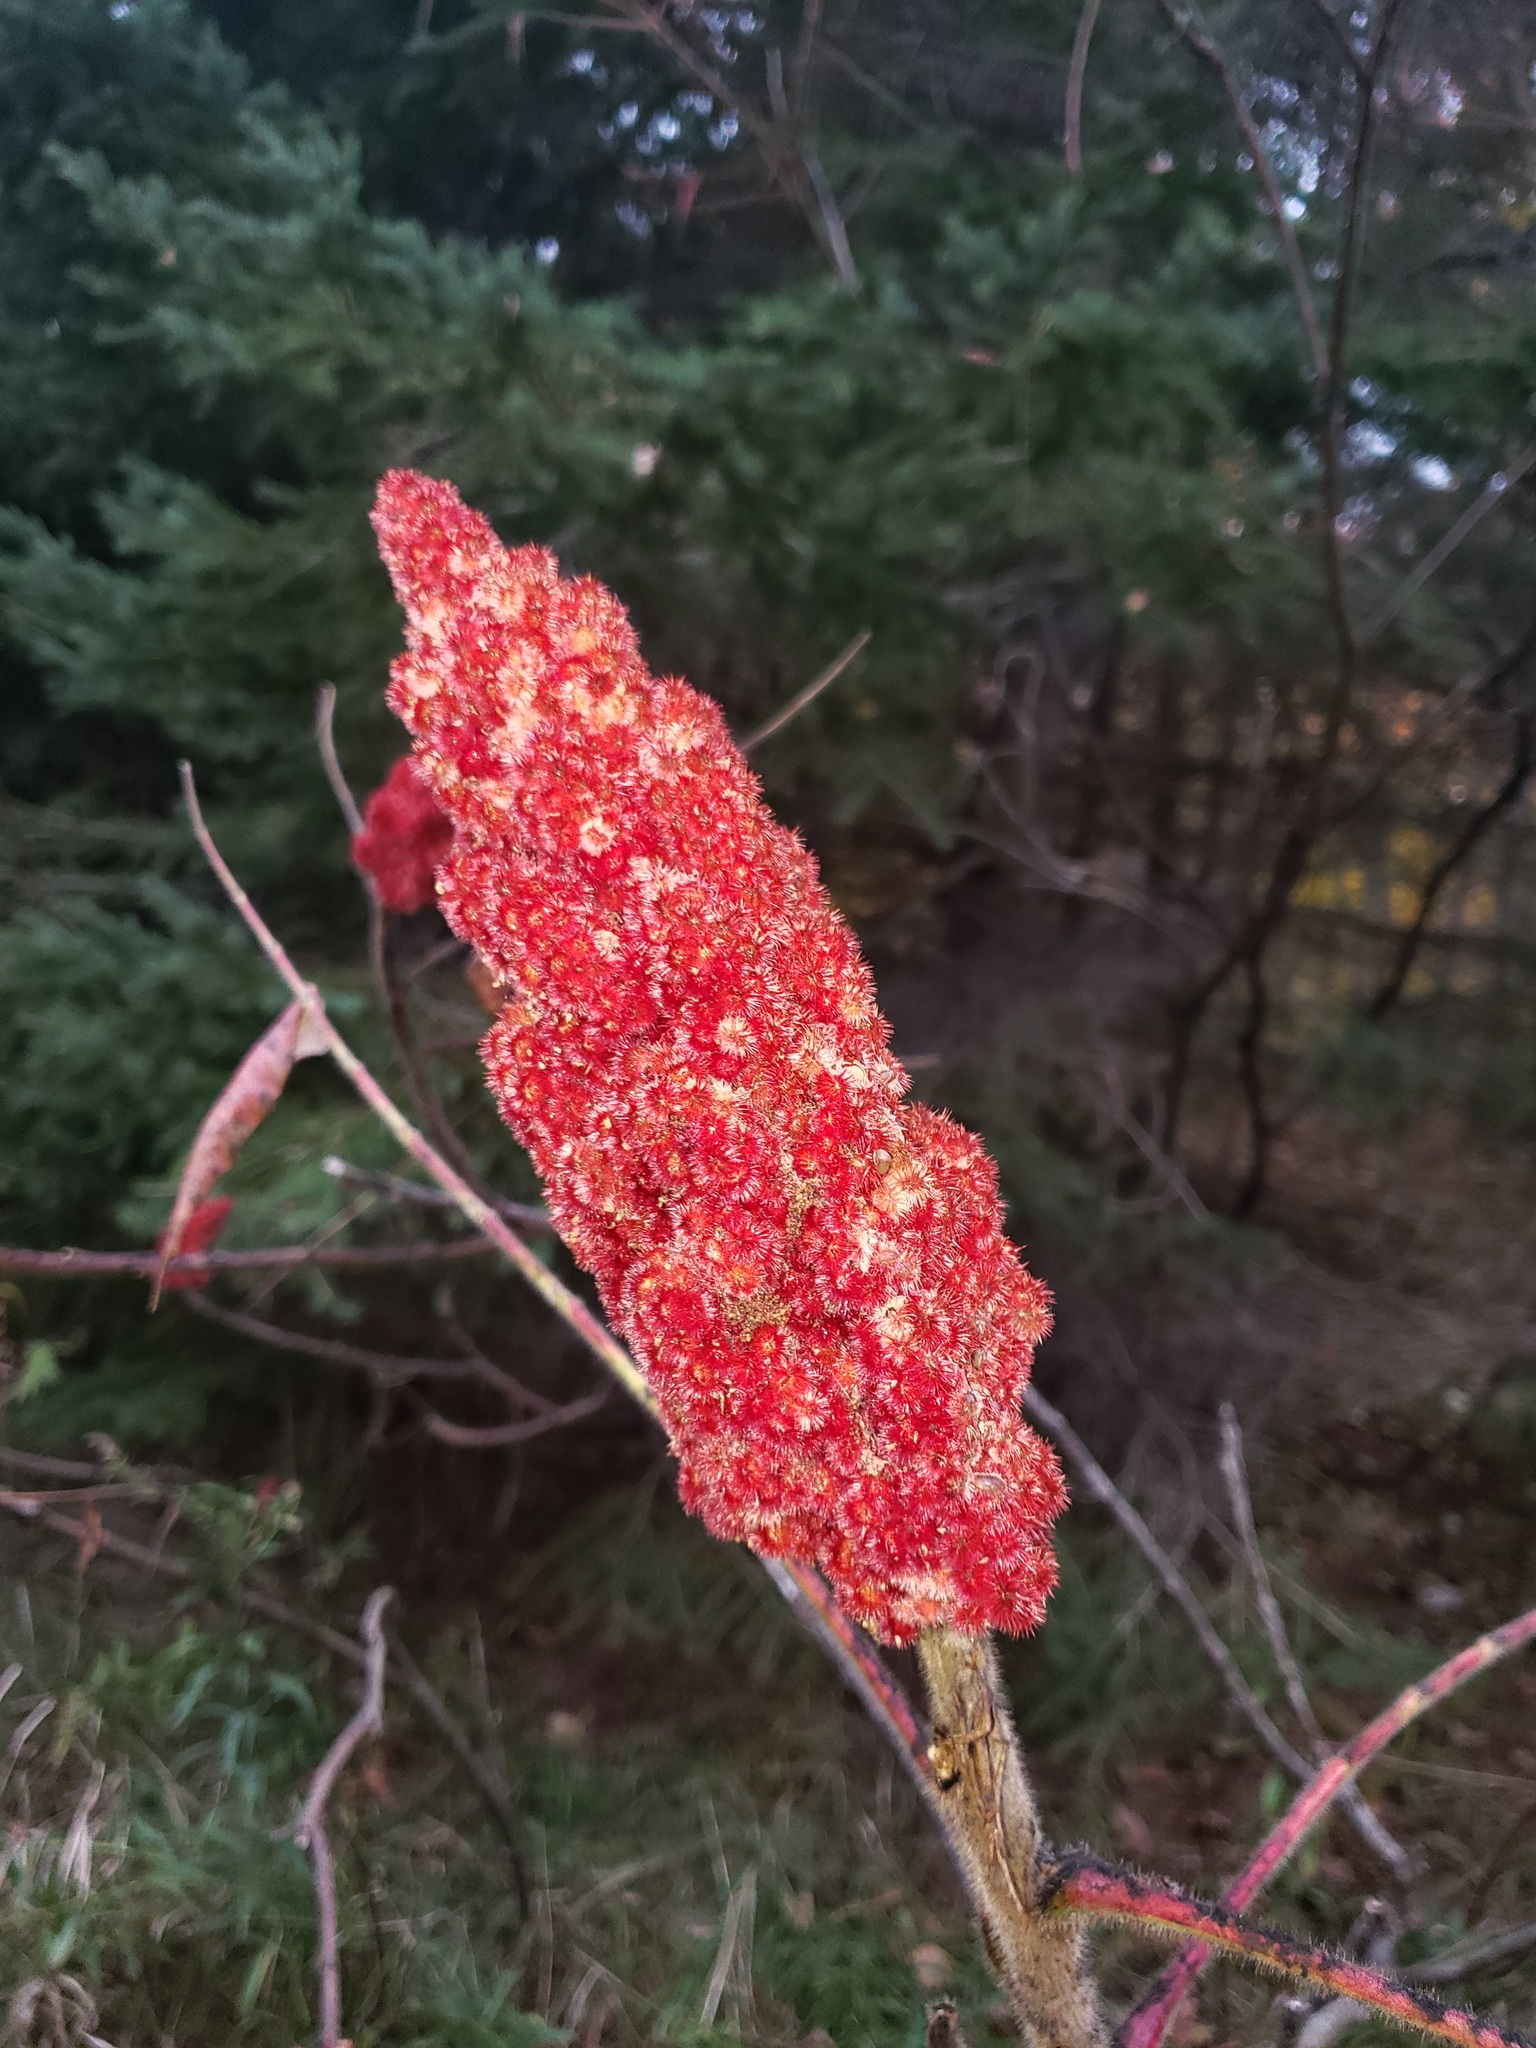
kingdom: Plantae
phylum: Tracheophyta
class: Magnoliopsida
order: Sapindales
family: Anacardiaceae
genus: Rhus
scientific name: Rhus typhina
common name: Staghorn sumac
